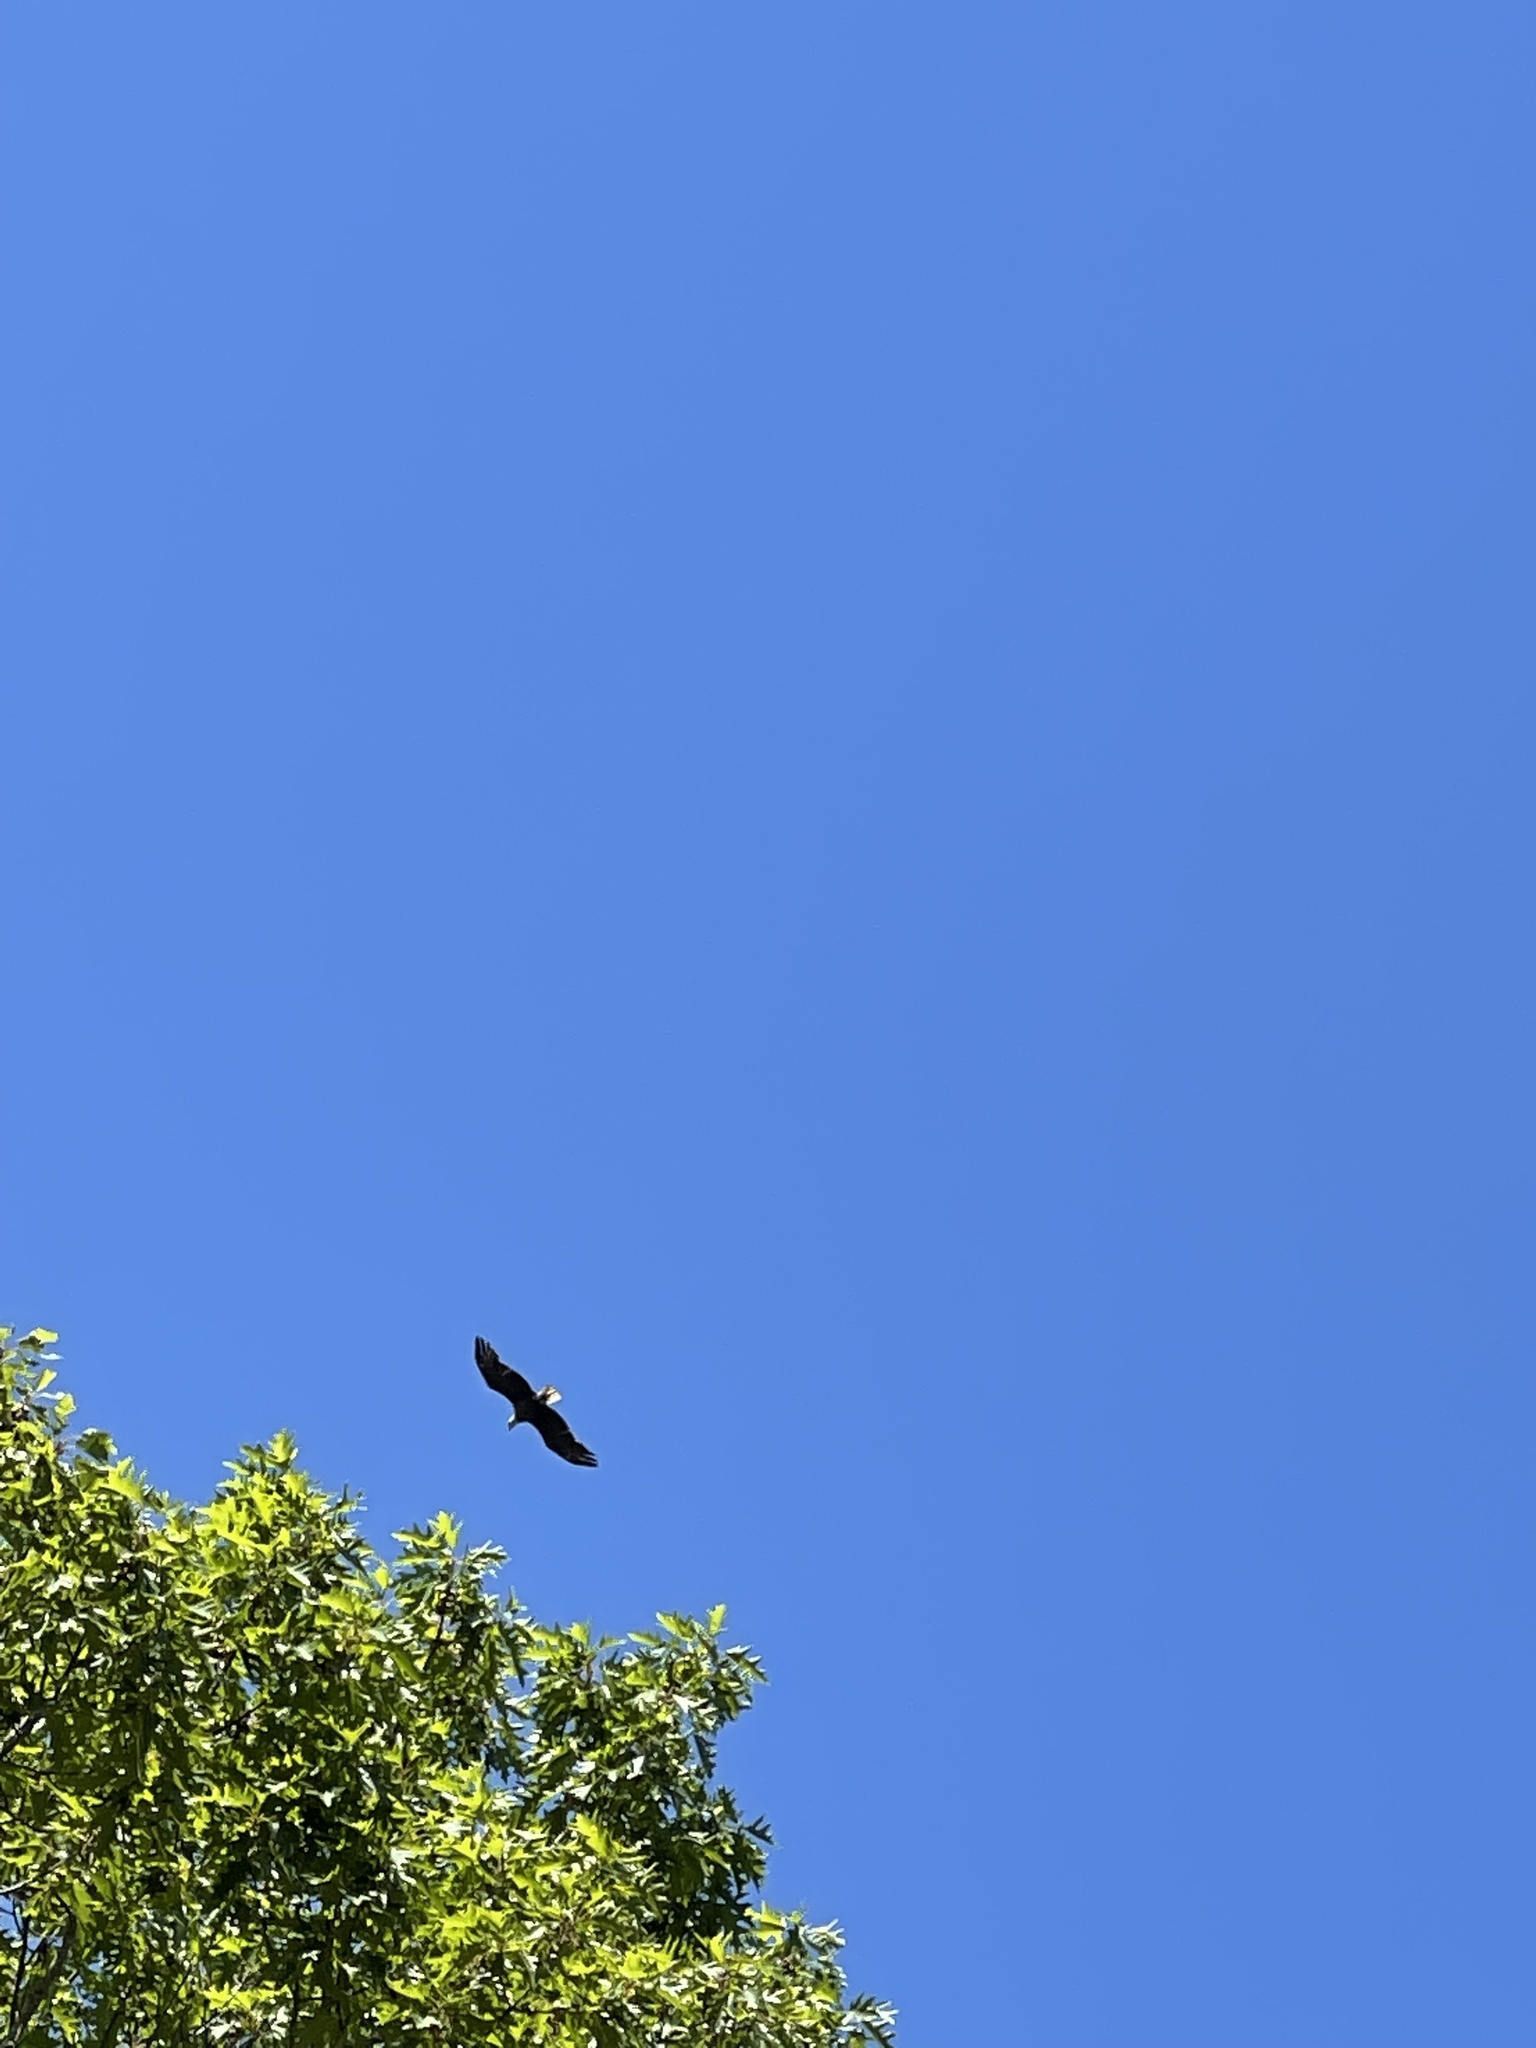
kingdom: Animalia
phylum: Chordata
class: Aves
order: Accipitriformes
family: Accipitridae
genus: Haliaeetus
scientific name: Haliaeetus leucocephalus
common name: Bald eagle
